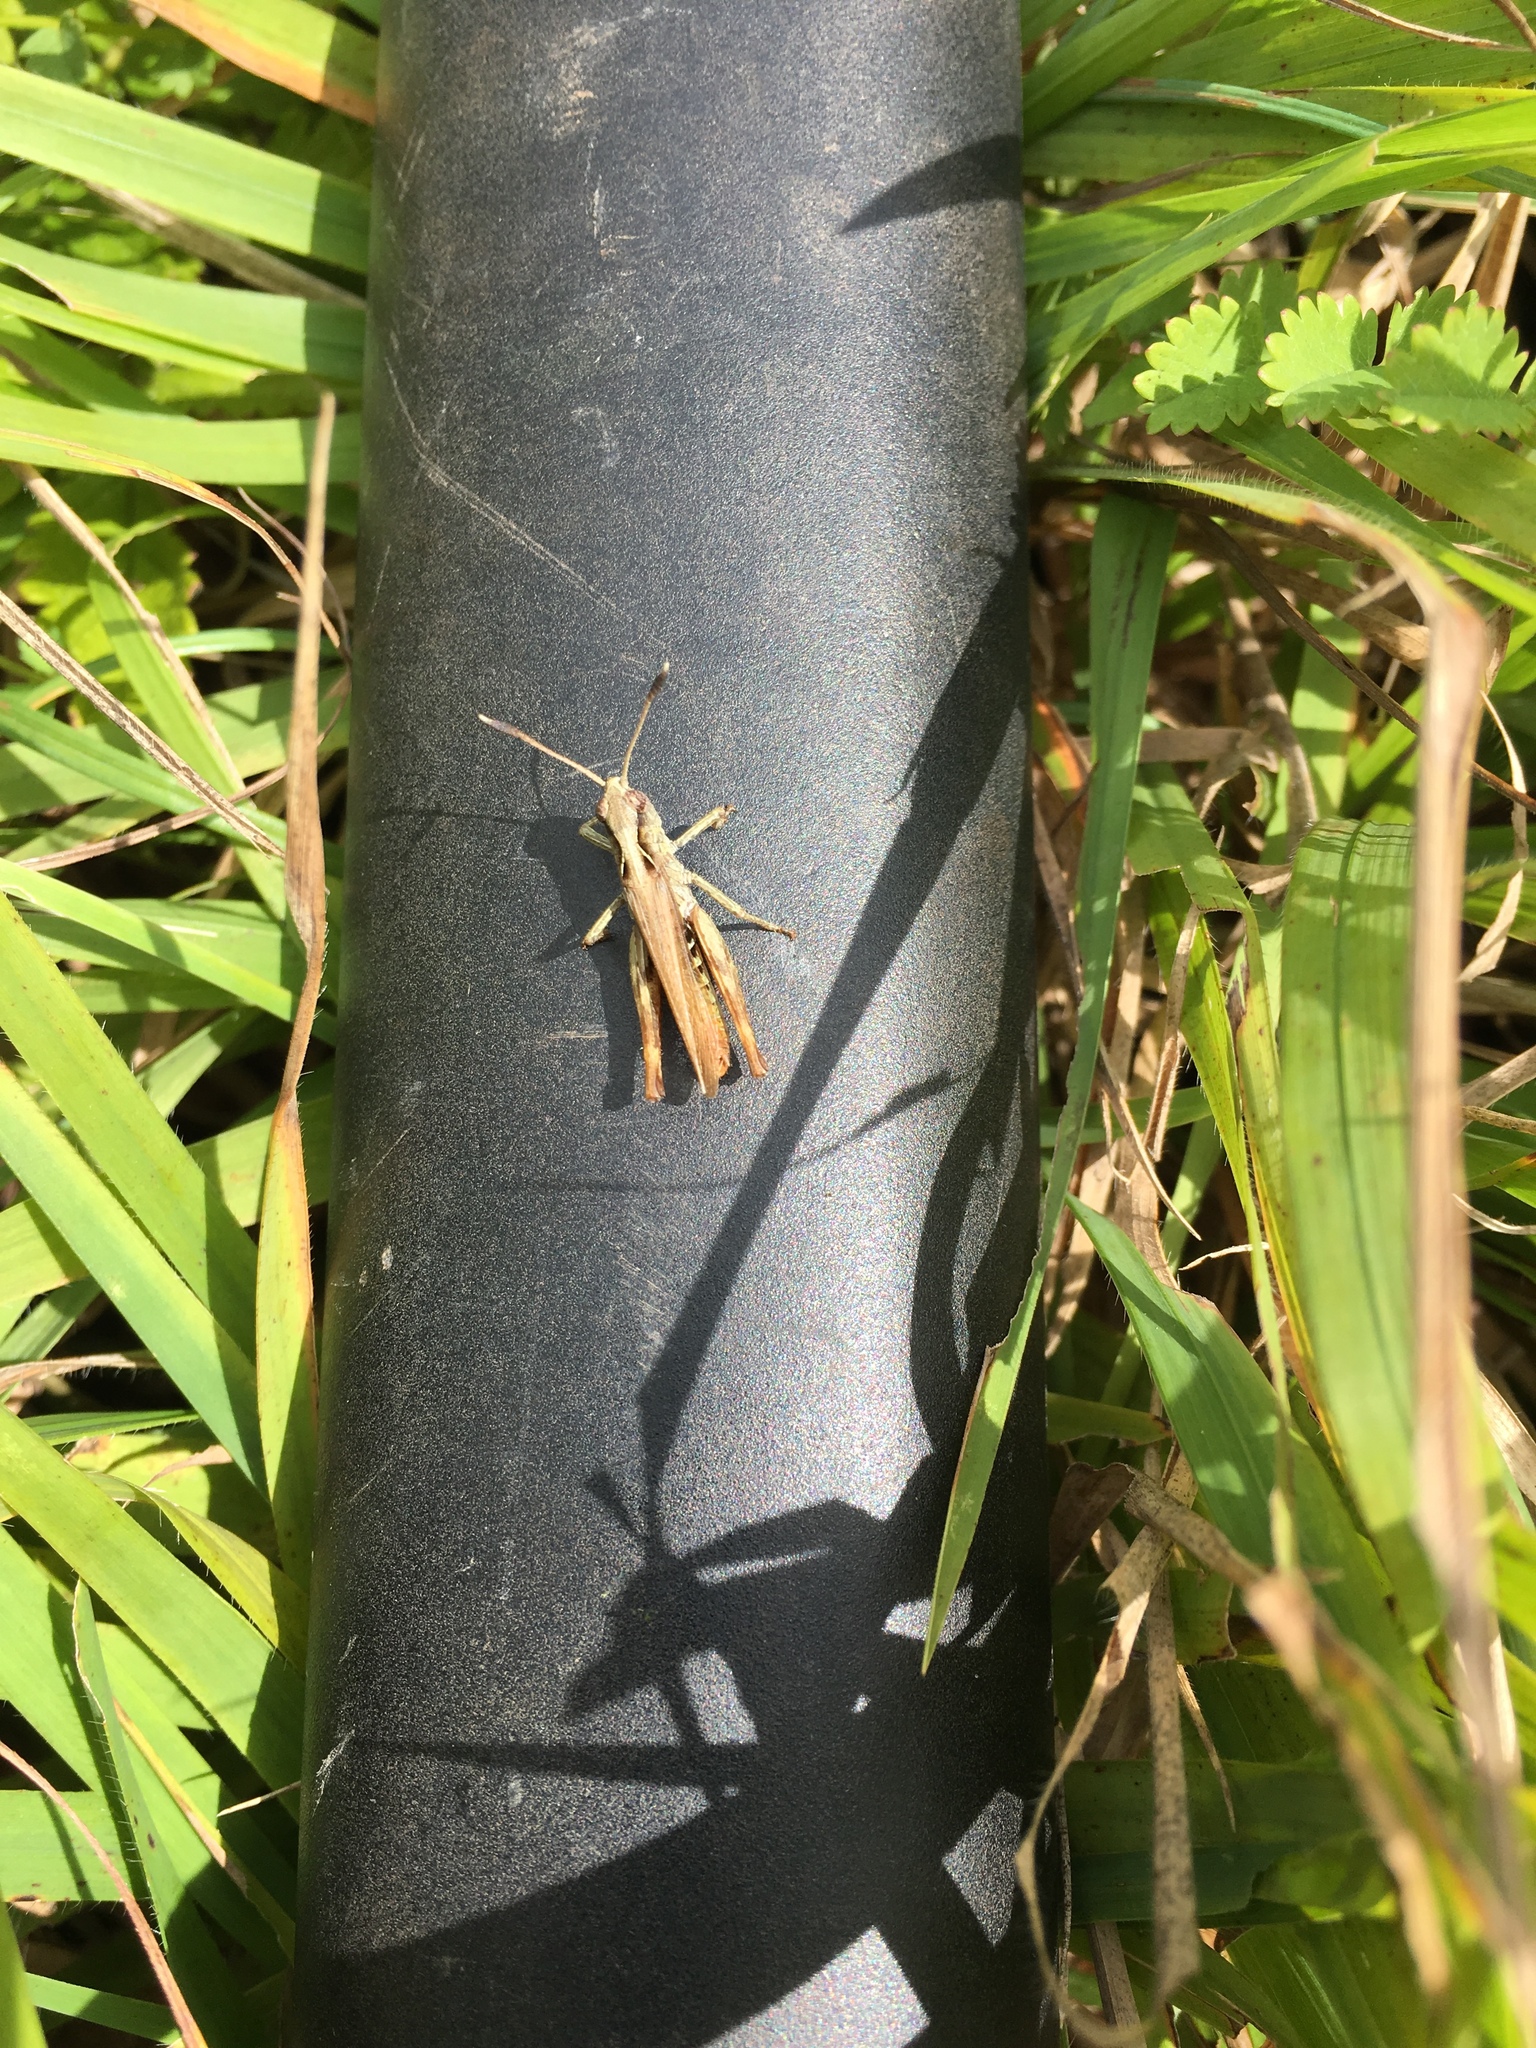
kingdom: Animalia
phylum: Arthropoda
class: Insecta
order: Orthoptera
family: Acrididae
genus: Gomphocerippus
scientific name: Gomphocerippus rufus
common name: Rufous grasshopper
